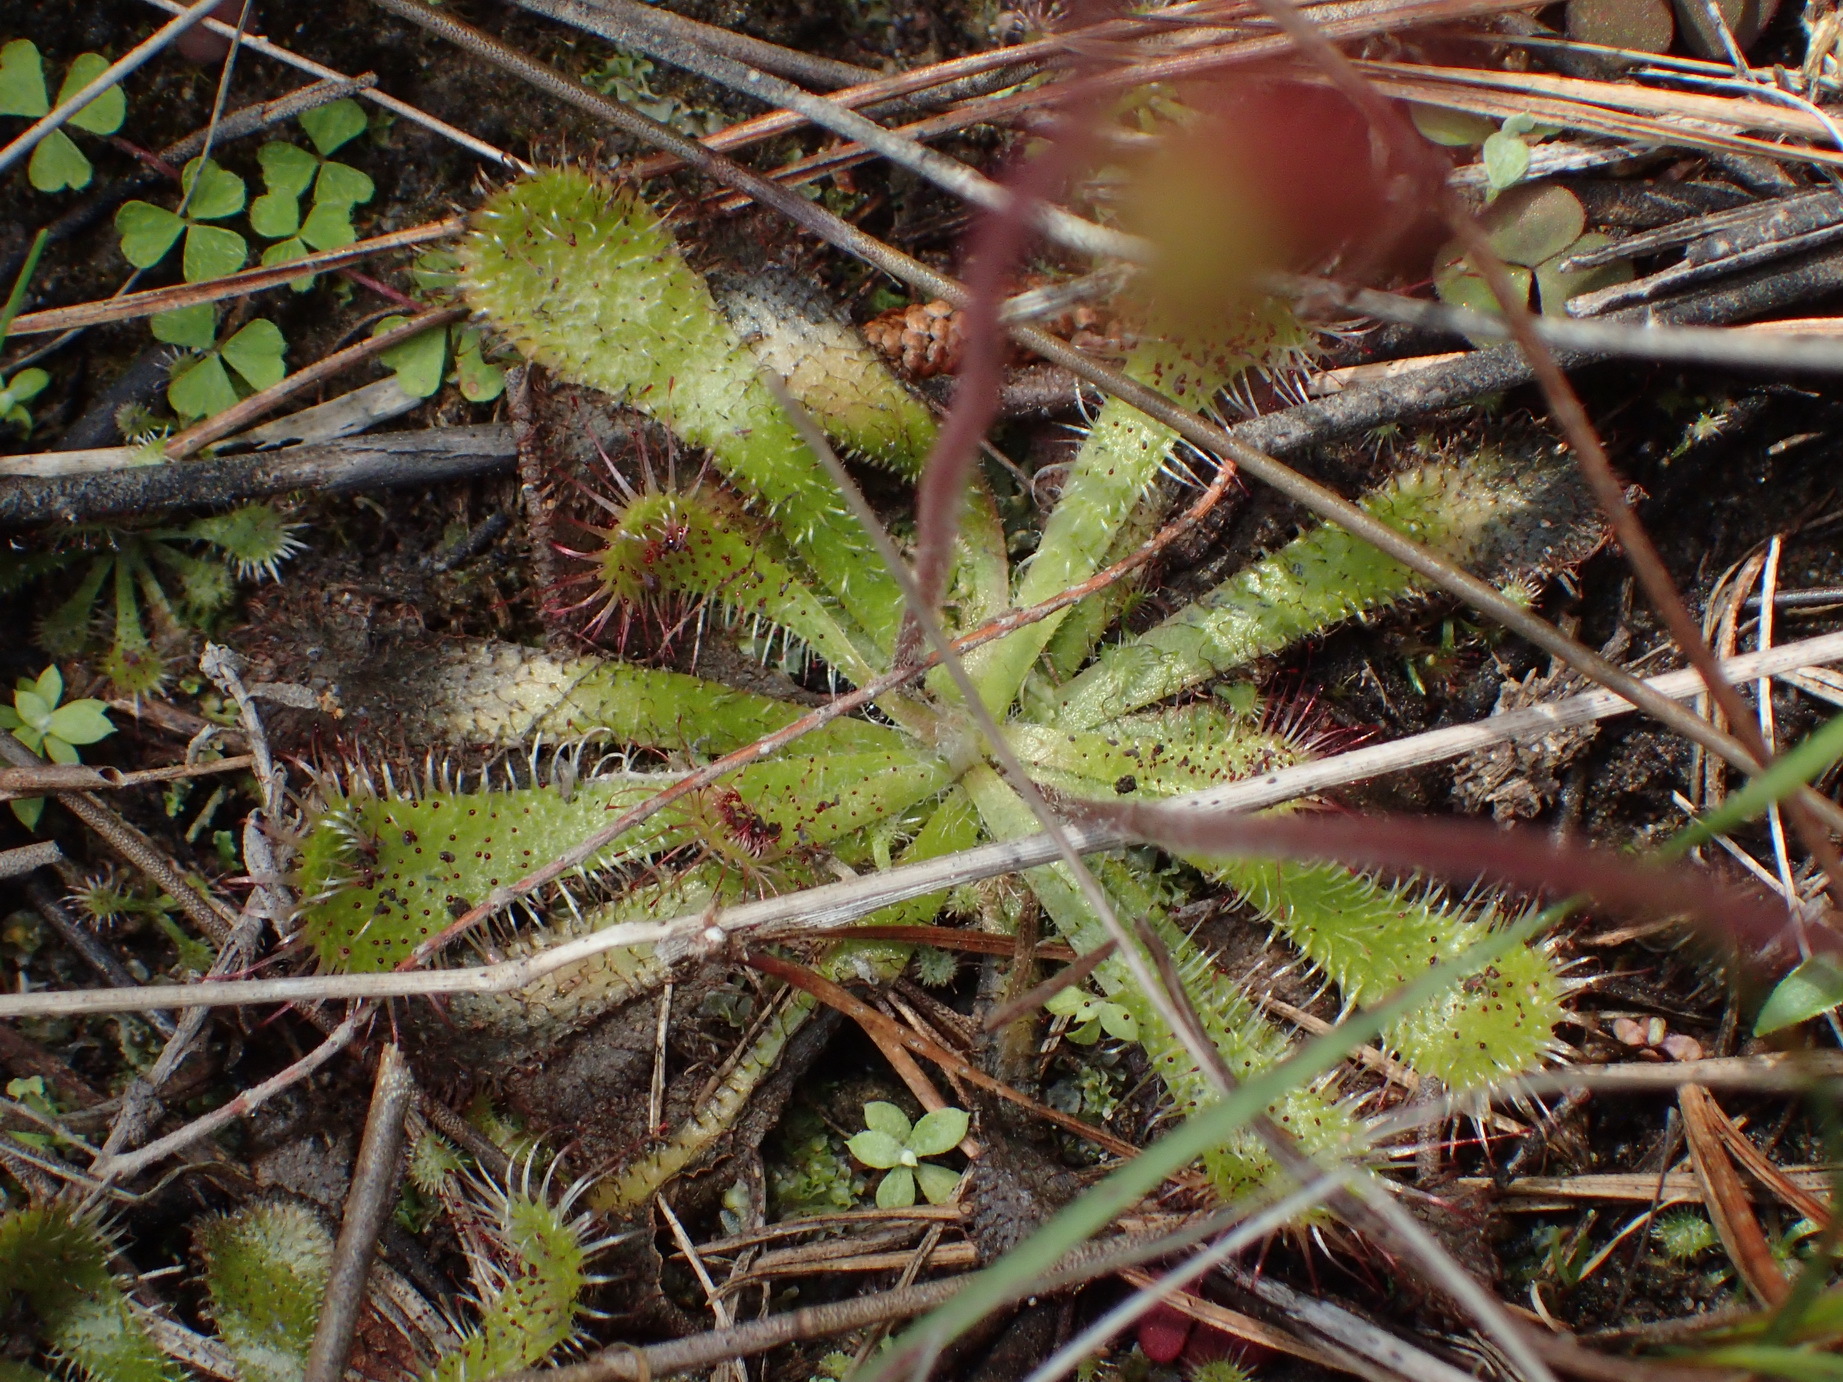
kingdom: Plantae
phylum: Tracheophyta
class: Magnoliopsida
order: Caryophyllales
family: Droseraceae
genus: Drosera
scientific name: Drosera natalensis
